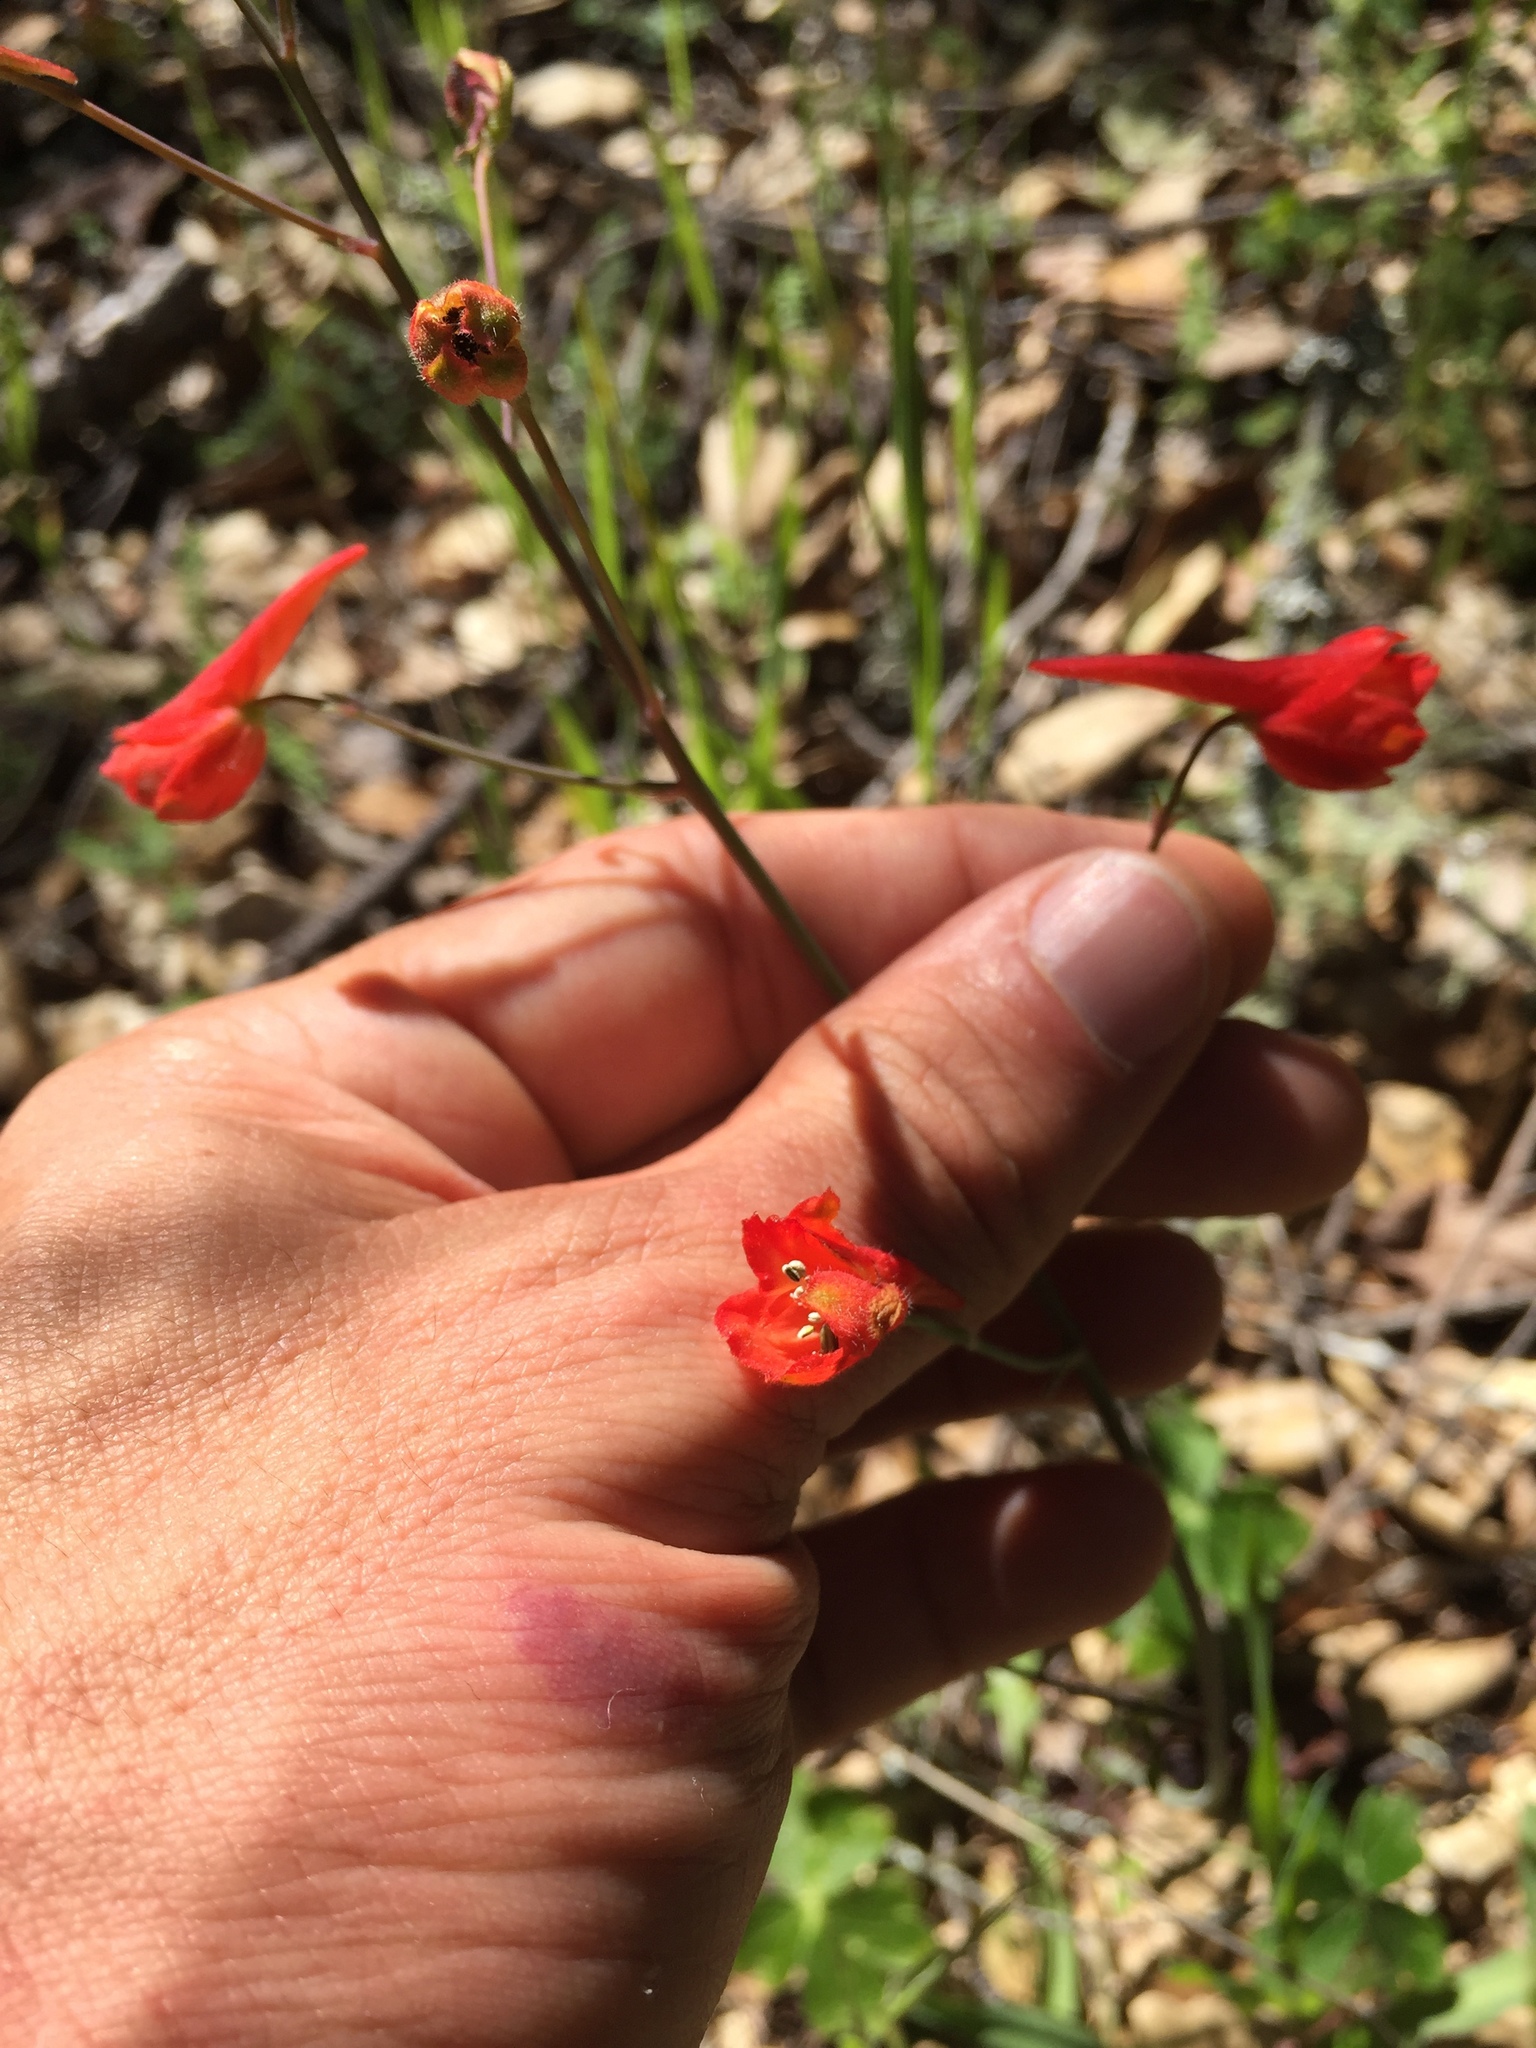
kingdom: Plantae
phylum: Tracheophyta
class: Magnoliopsida
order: Ranunculales
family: Ranunculaceae
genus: Delphinium
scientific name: Delphinium nudicaule
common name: Red larkspur
